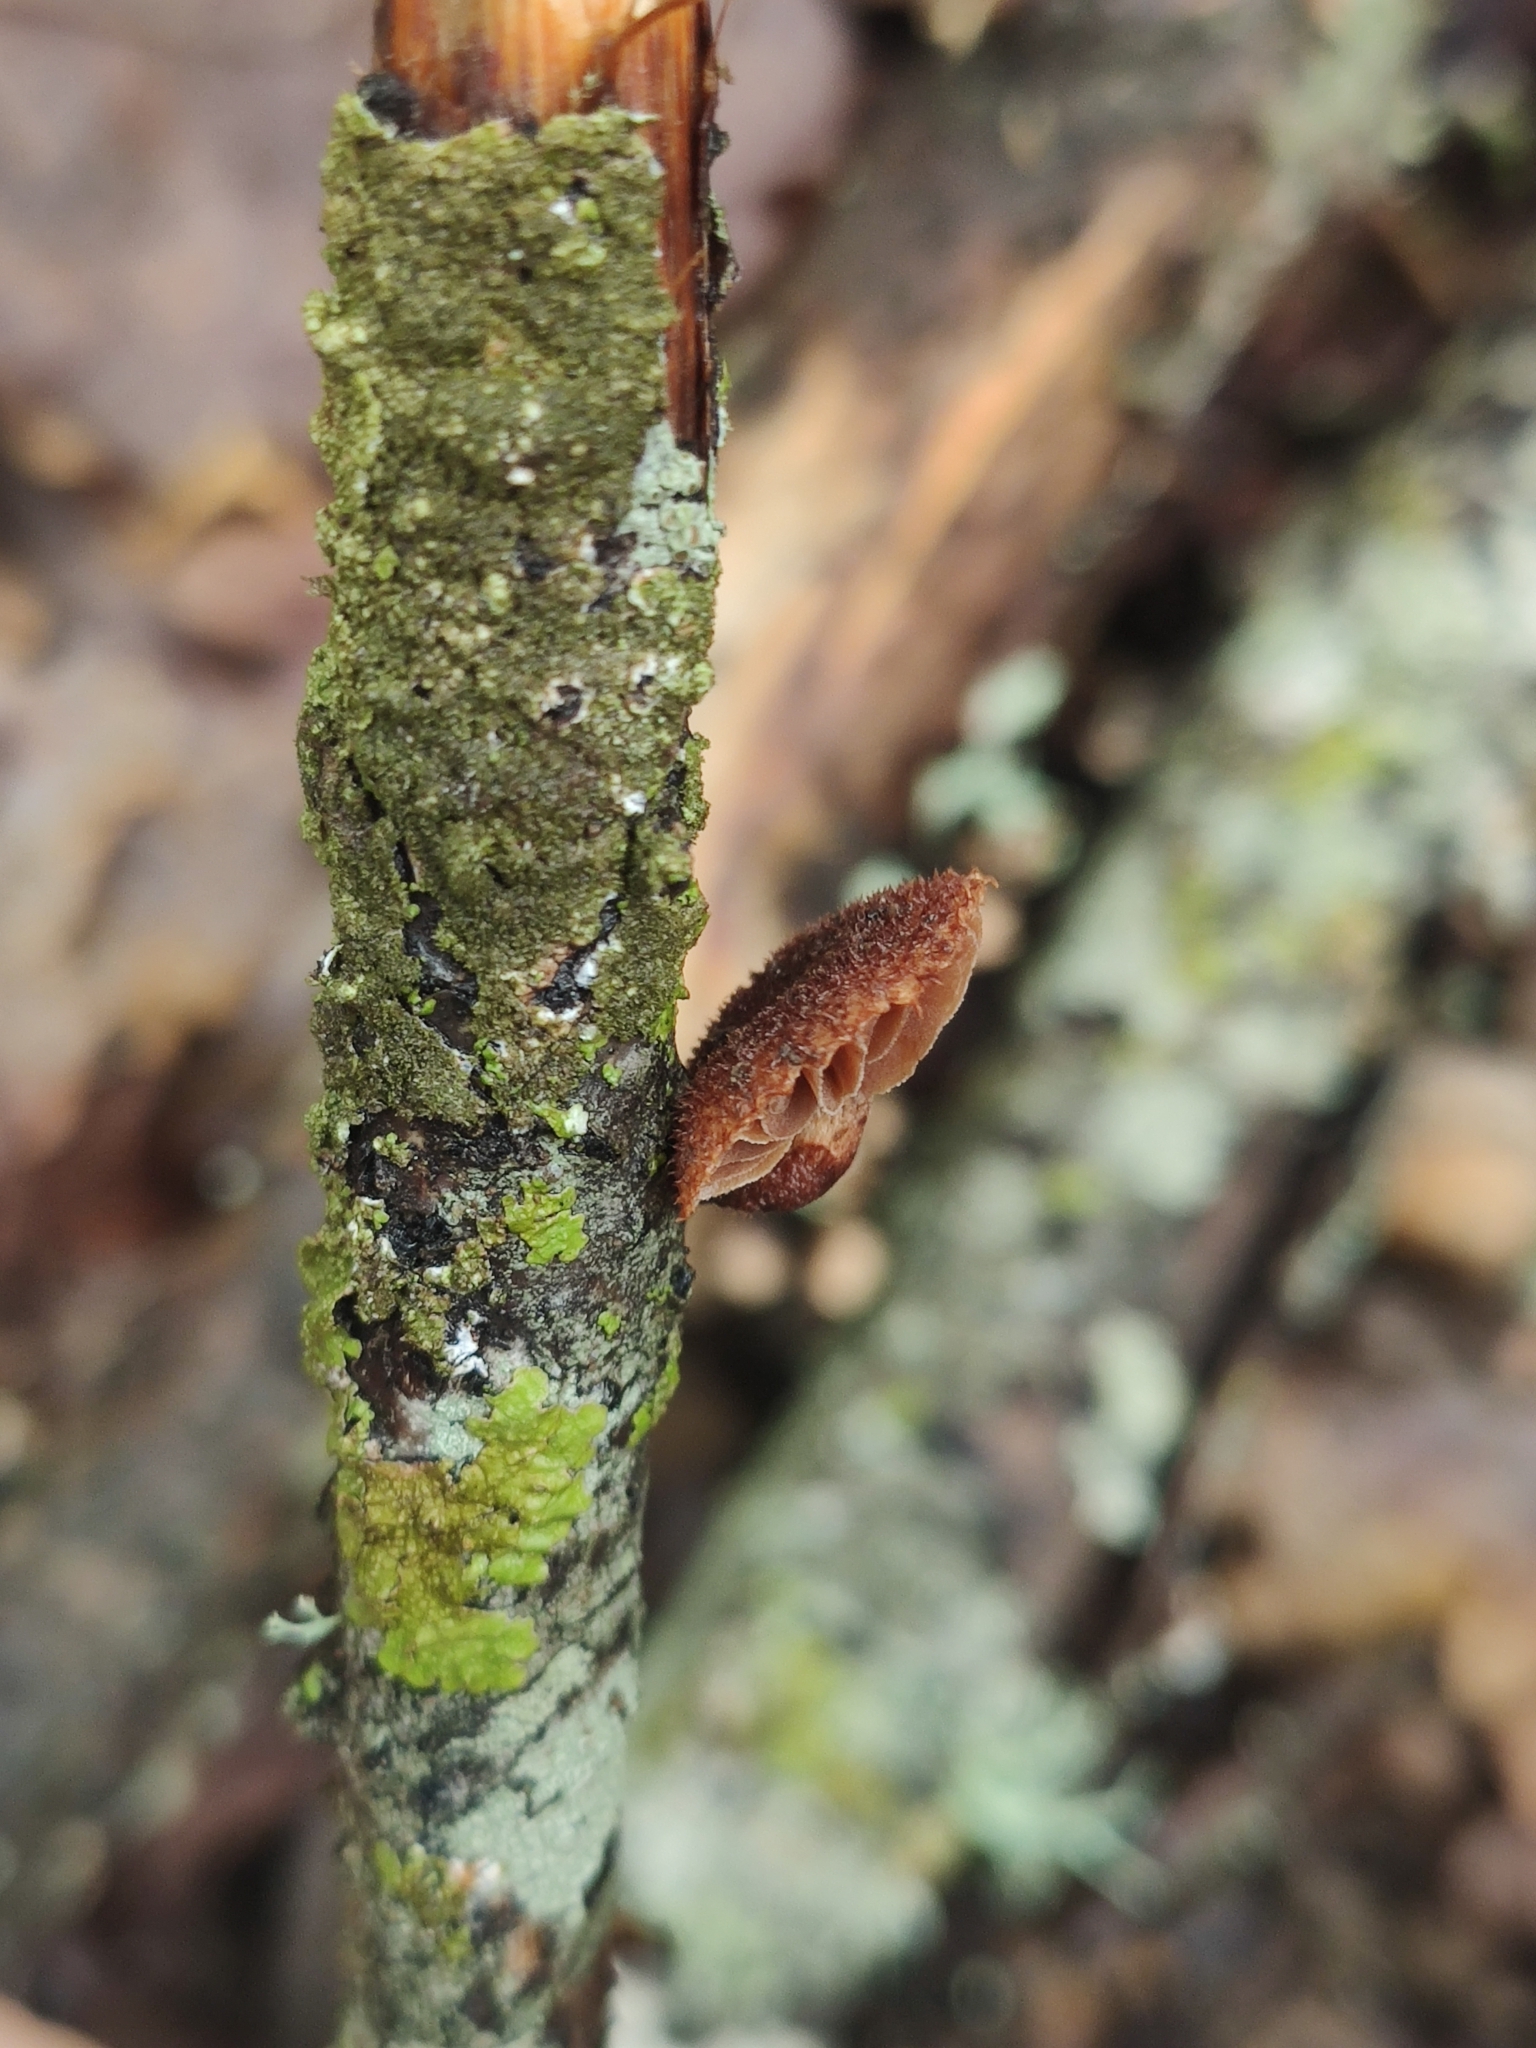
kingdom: Fungi
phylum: Basidiomycota
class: Agaricomycetes
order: Agaricales
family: Tubariaceae
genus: Phaeomarasmius
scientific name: Phaeomarasmius erinaceus
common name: Hedgehog scalycap
